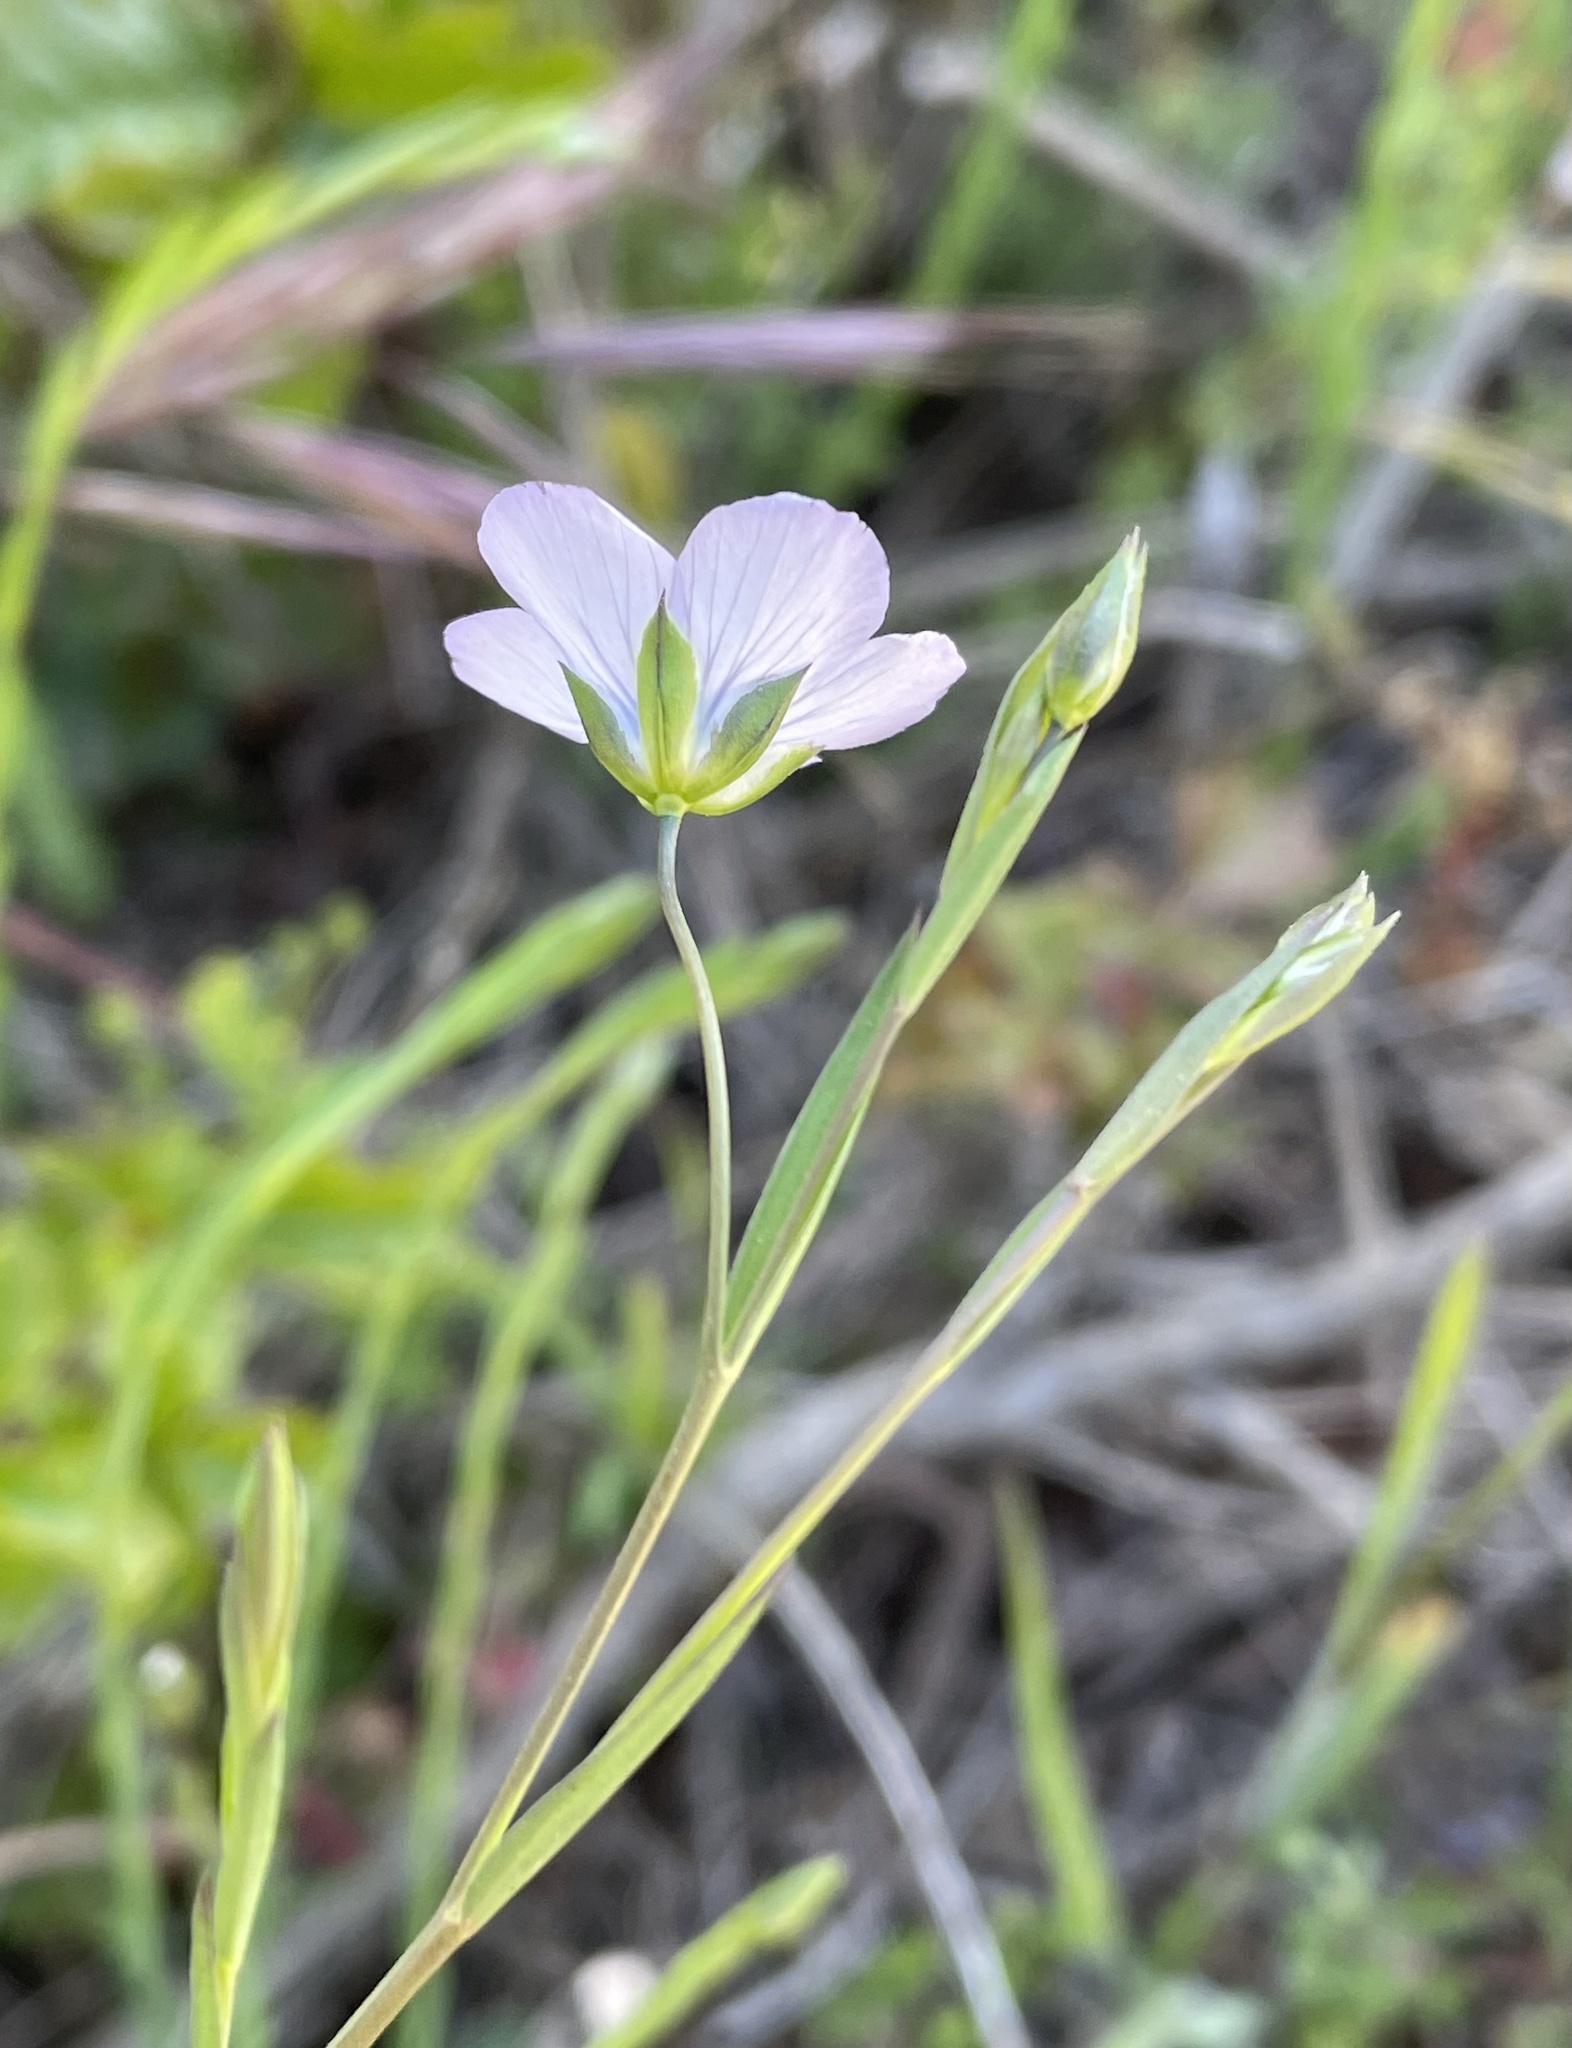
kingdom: Plantae
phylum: Tracheophyta
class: Magnoliopsida
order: Malpighiales
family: Linaceae
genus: Linum
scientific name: Linum bienne
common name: Pale flax
